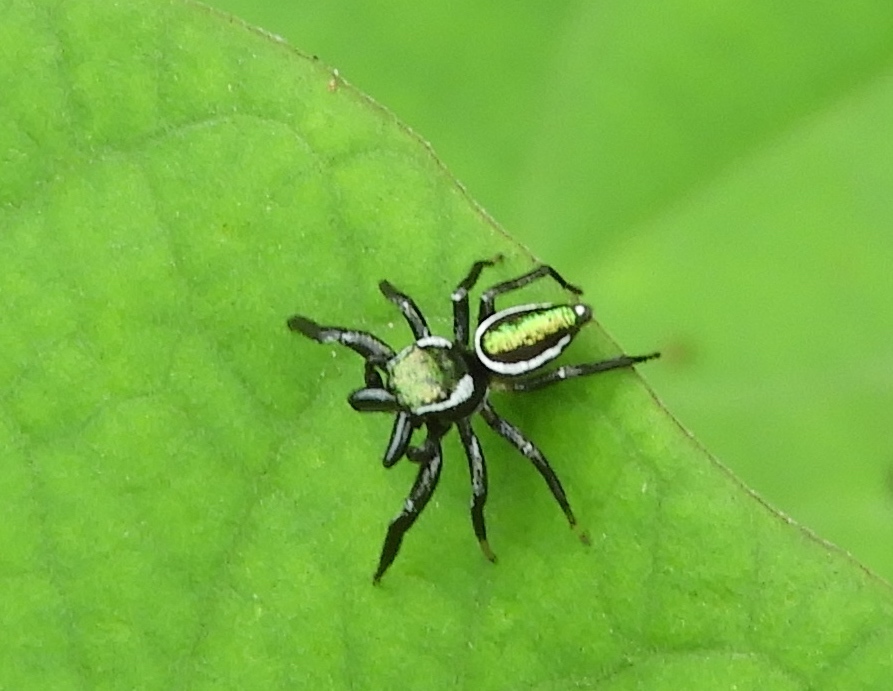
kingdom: Animalia
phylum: Arthropoda
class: Arachnida
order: Araneae
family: Salticidae
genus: Messua
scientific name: Messua limbata
